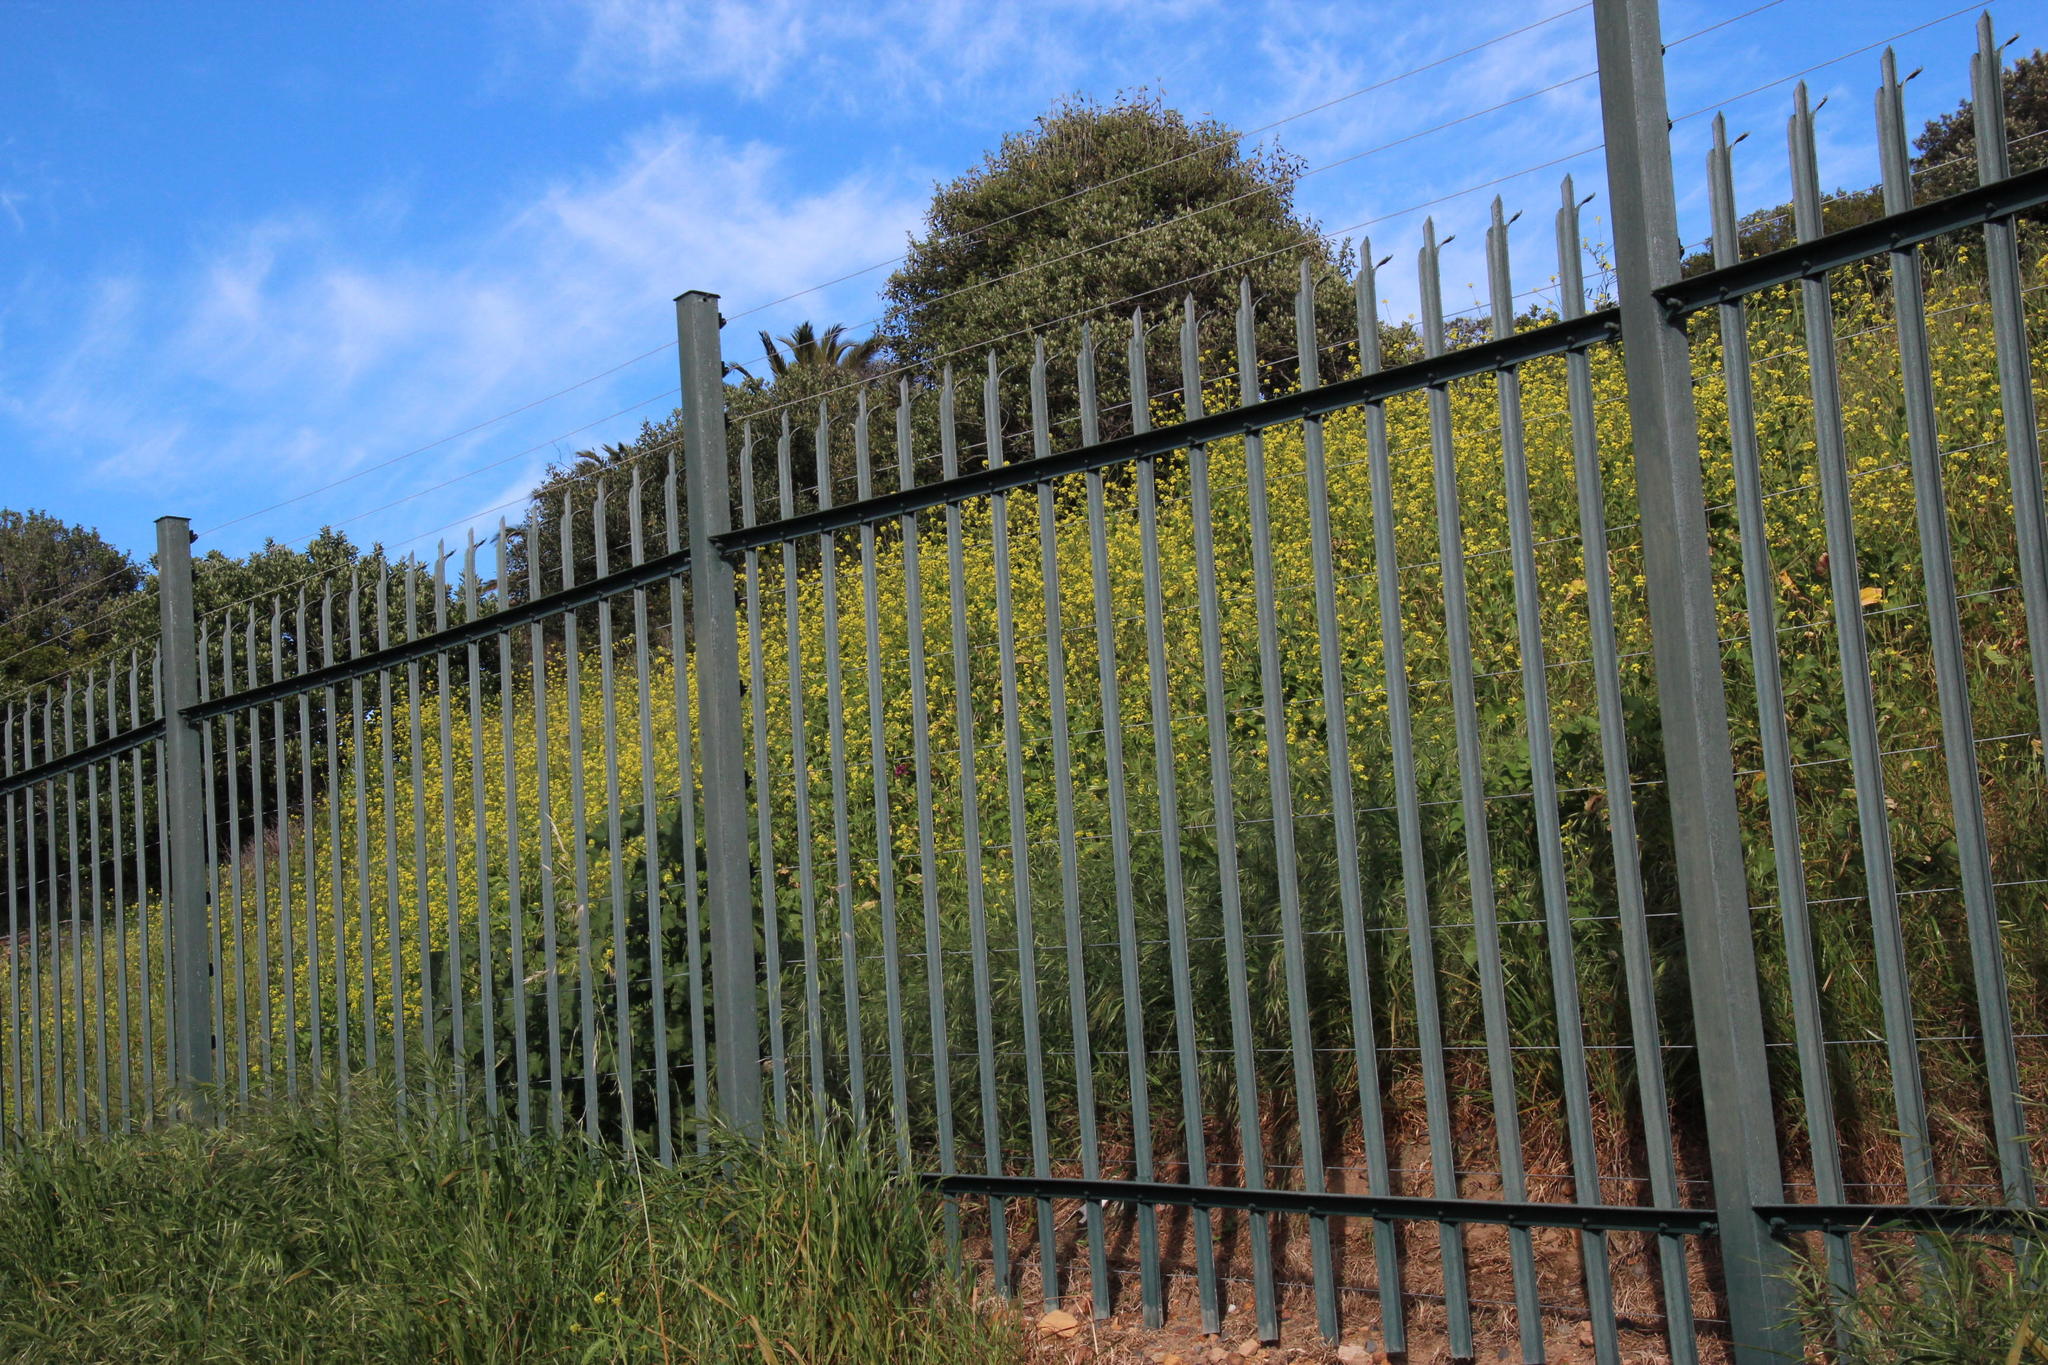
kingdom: Plantae
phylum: Tracheophyta
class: Magnoliopsida
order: Brassicales
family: Brassicaceae
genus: Rapistrum
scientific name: Rapistrum rugosum
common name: Annual bastardcabbage
